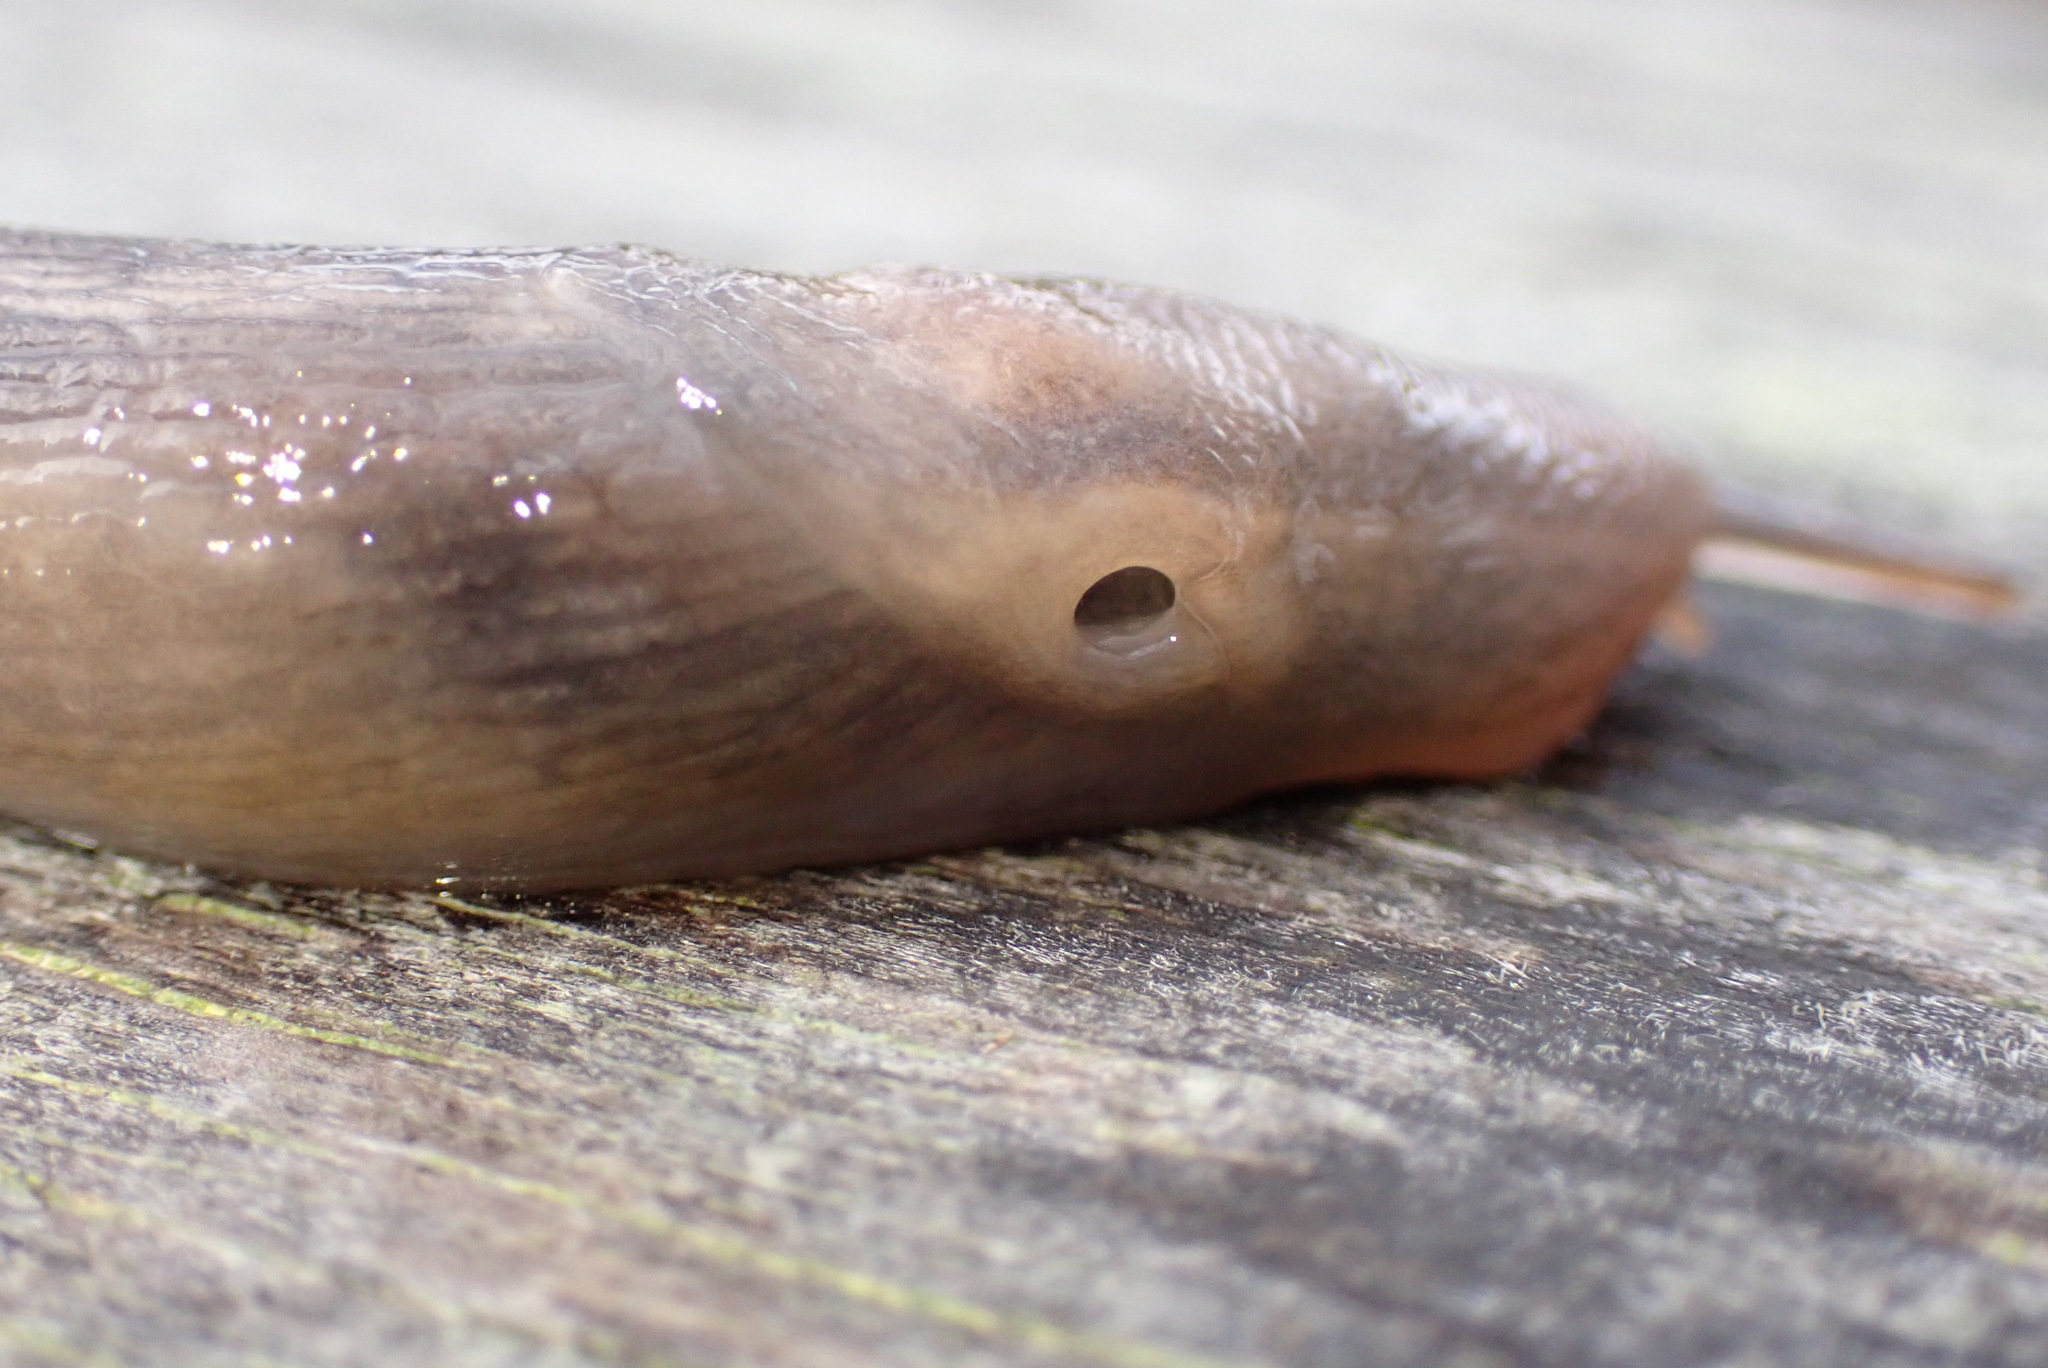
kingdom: Animalia
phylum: Mollusca
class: Gastropoda
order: Stylommatophora
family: Limacidae
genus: Lehmannia
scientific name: Lehmannia marginata
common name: Tree slug
